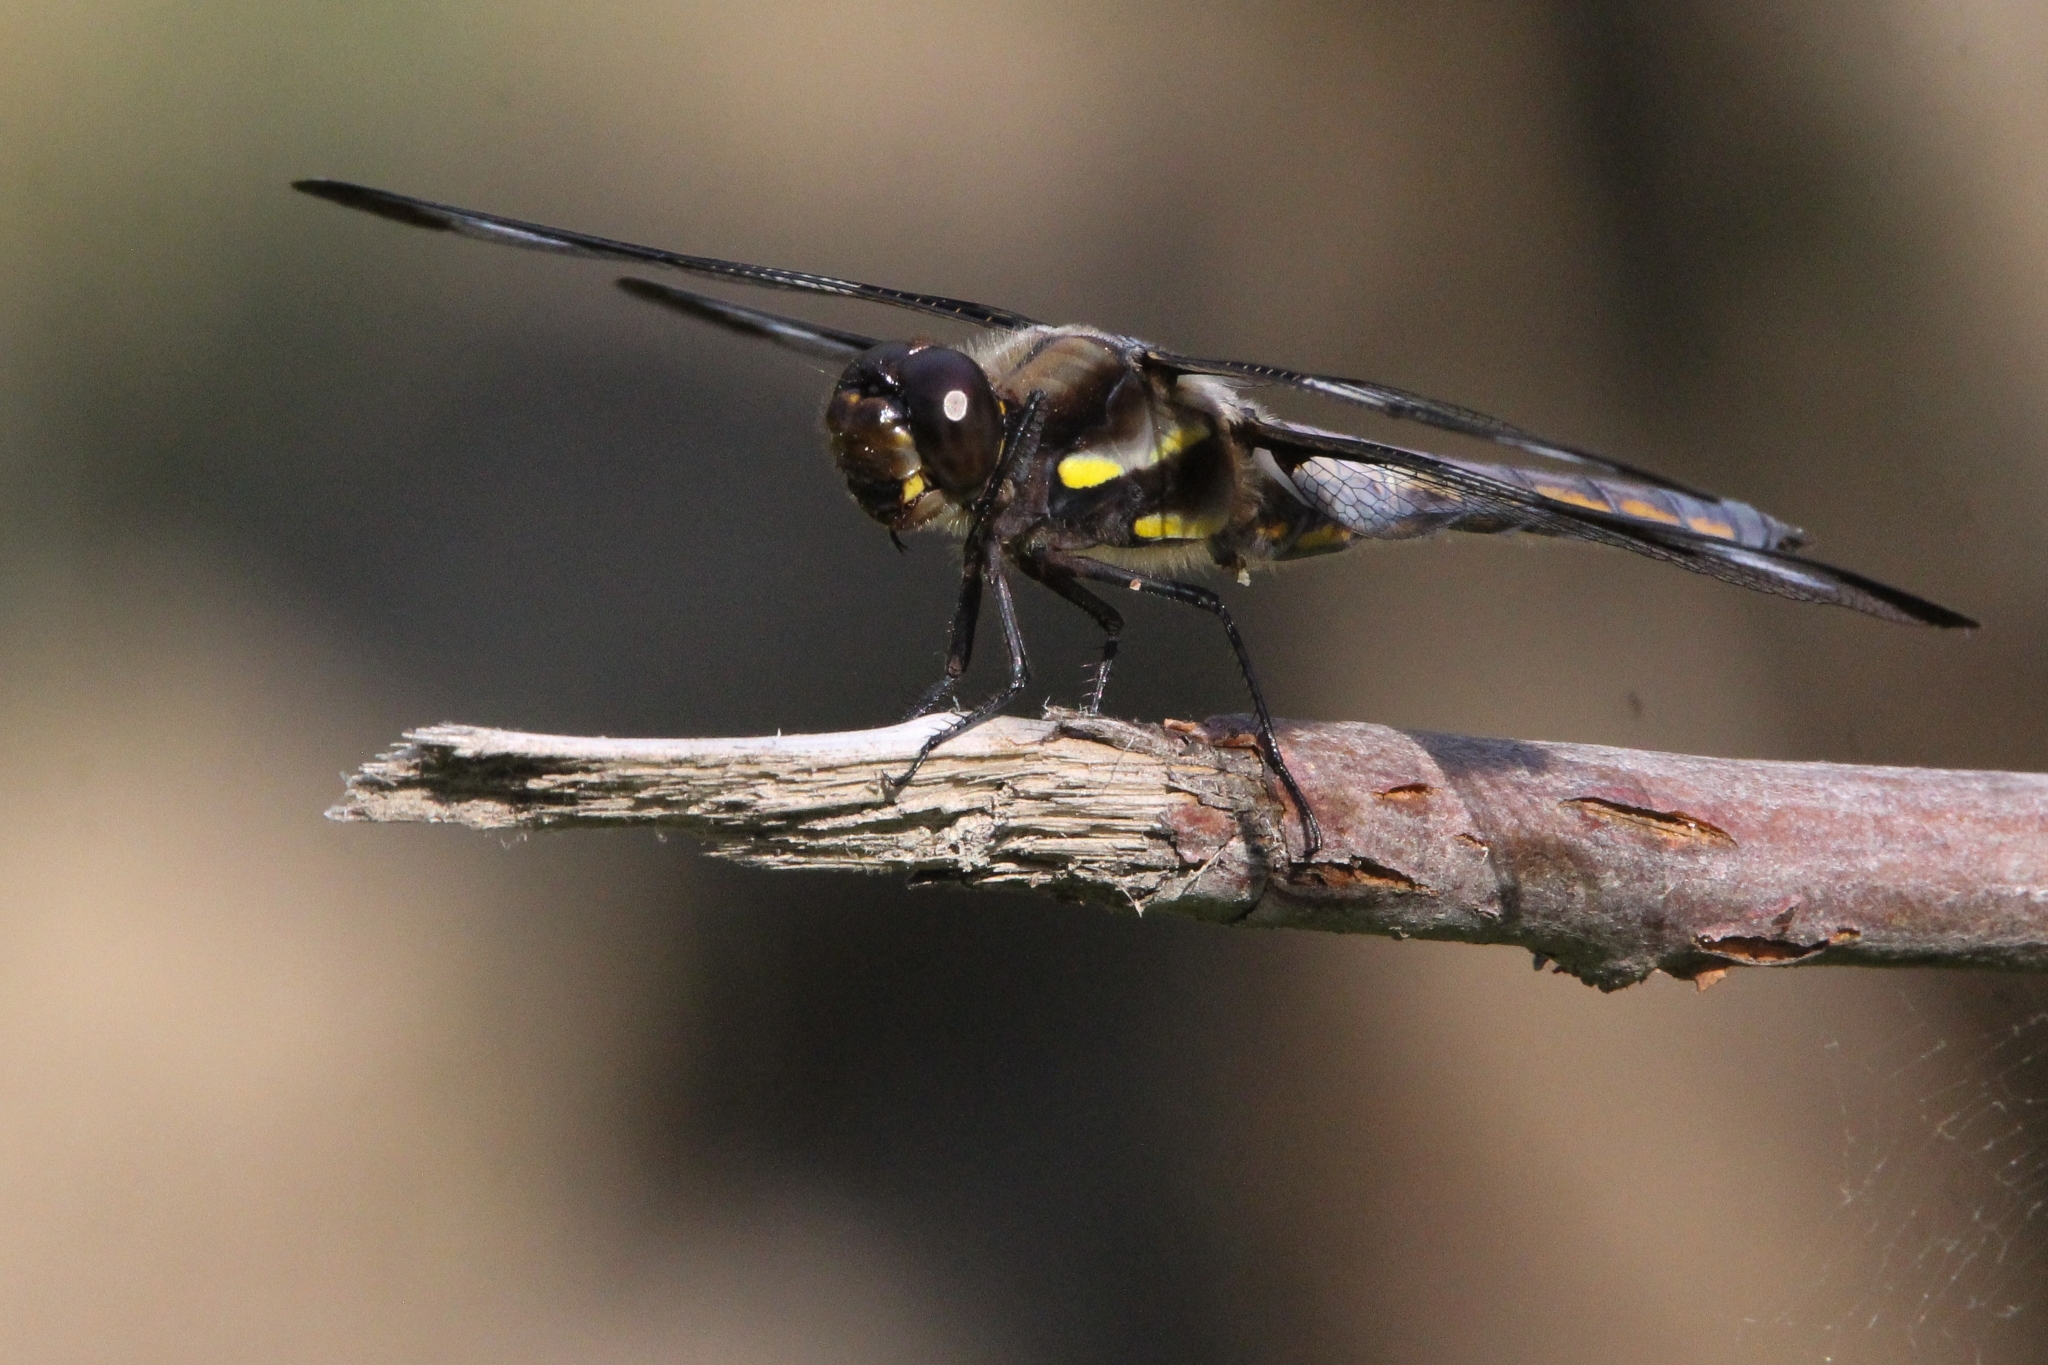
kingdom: Animalia
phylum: Arthropoda
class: Insecta
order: Odonata
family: Libellulidae
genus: Libellula
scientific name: Libellula pulchella
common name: Twelve-spotted skimmer
